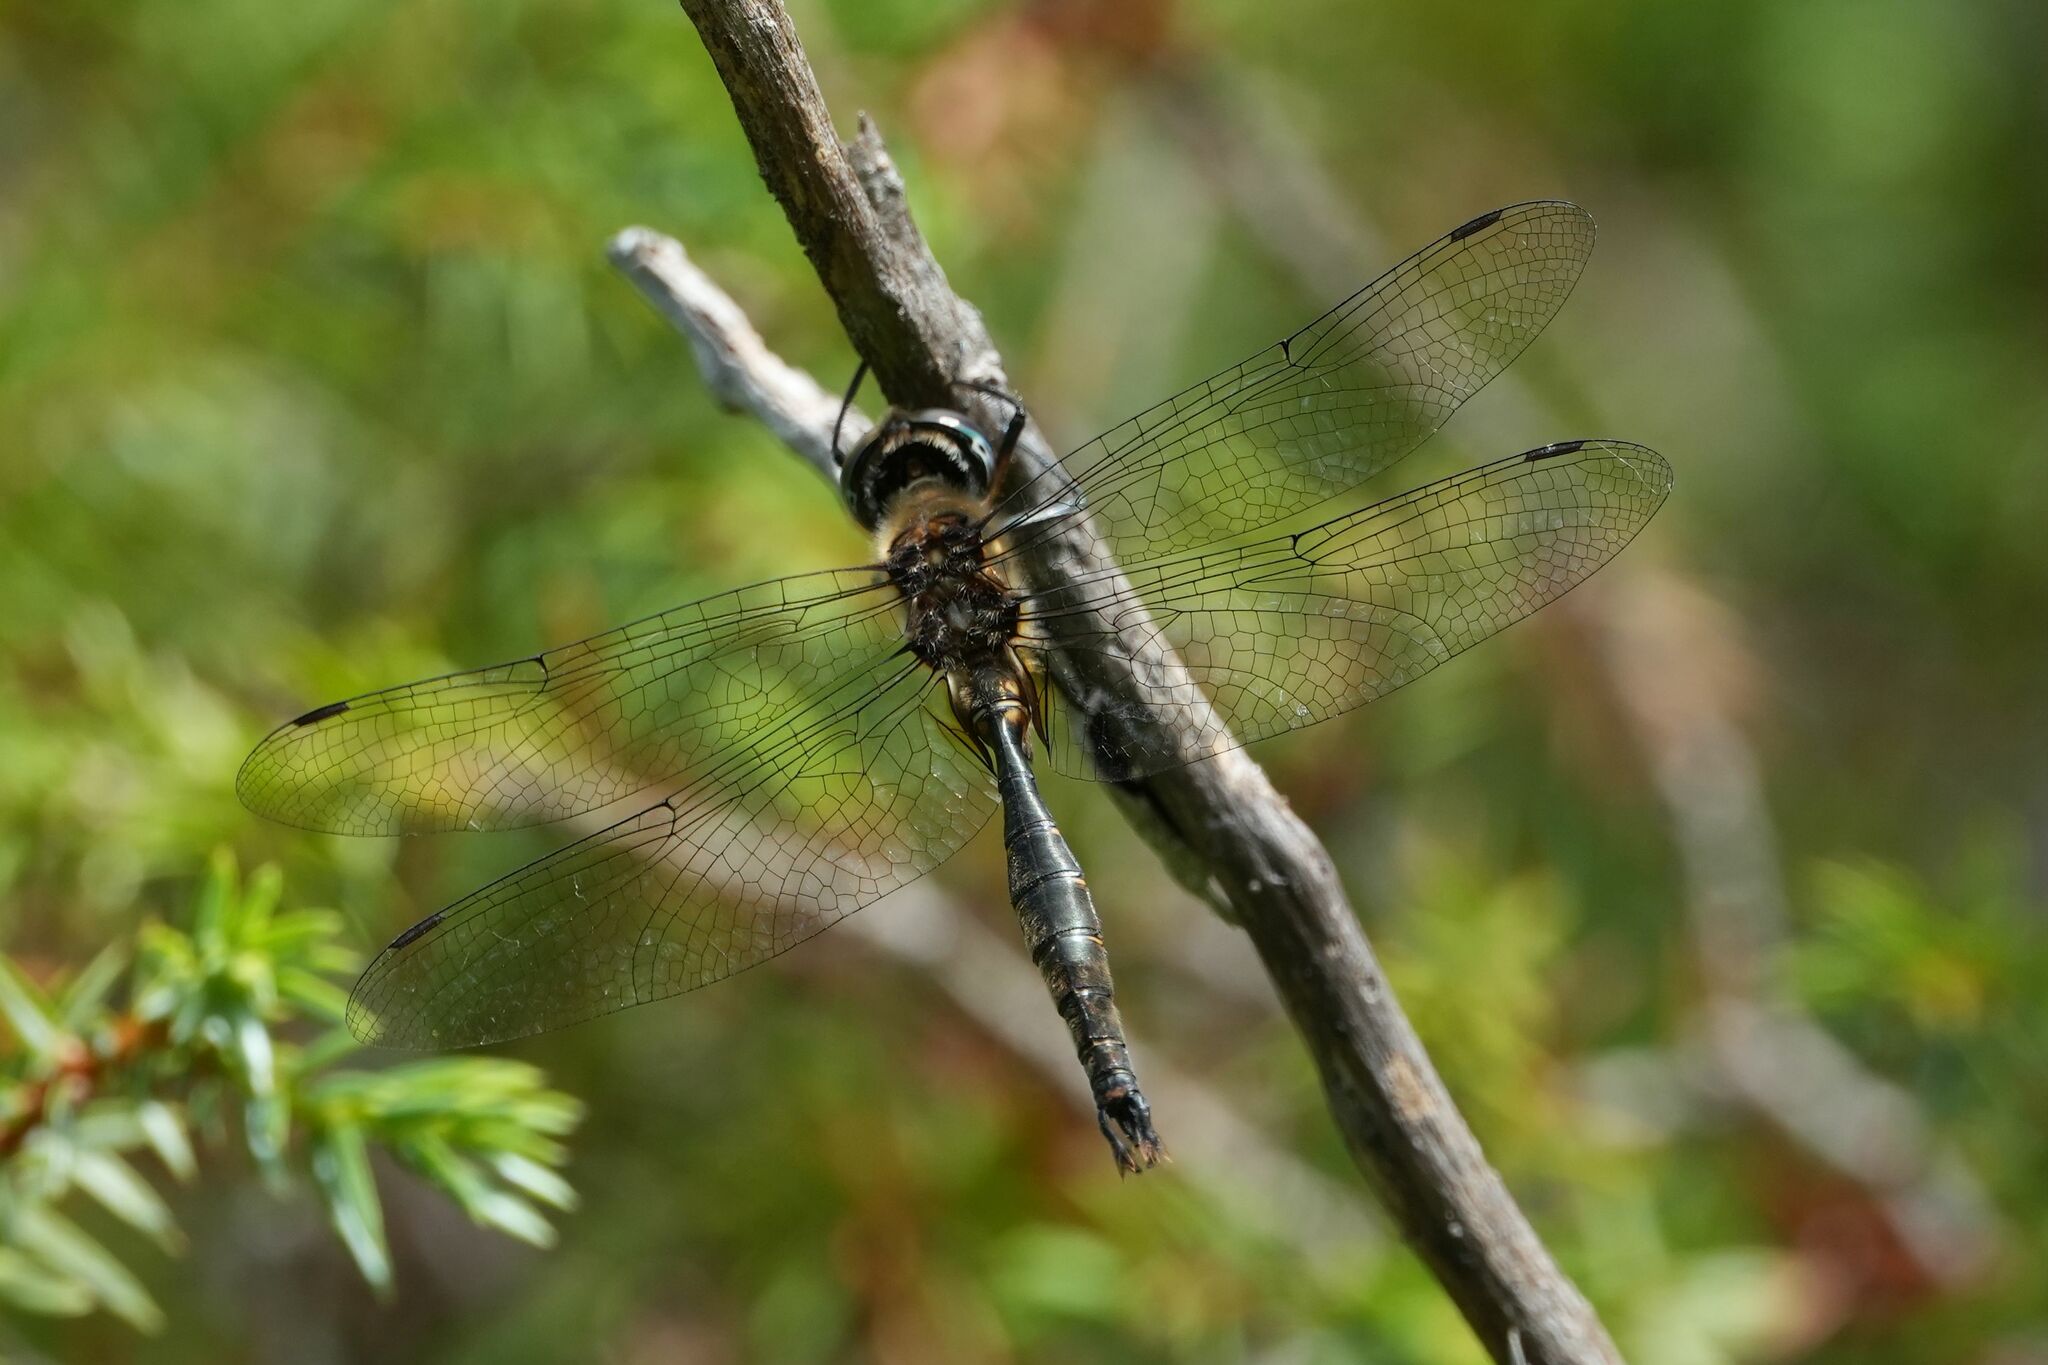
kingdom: Animalia
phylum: Arthropoda
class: Insecta
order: Odonata
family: Corduliidae
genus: Somatochlora
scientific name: Somatochlora walshii
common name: Brush-tipped emerald
